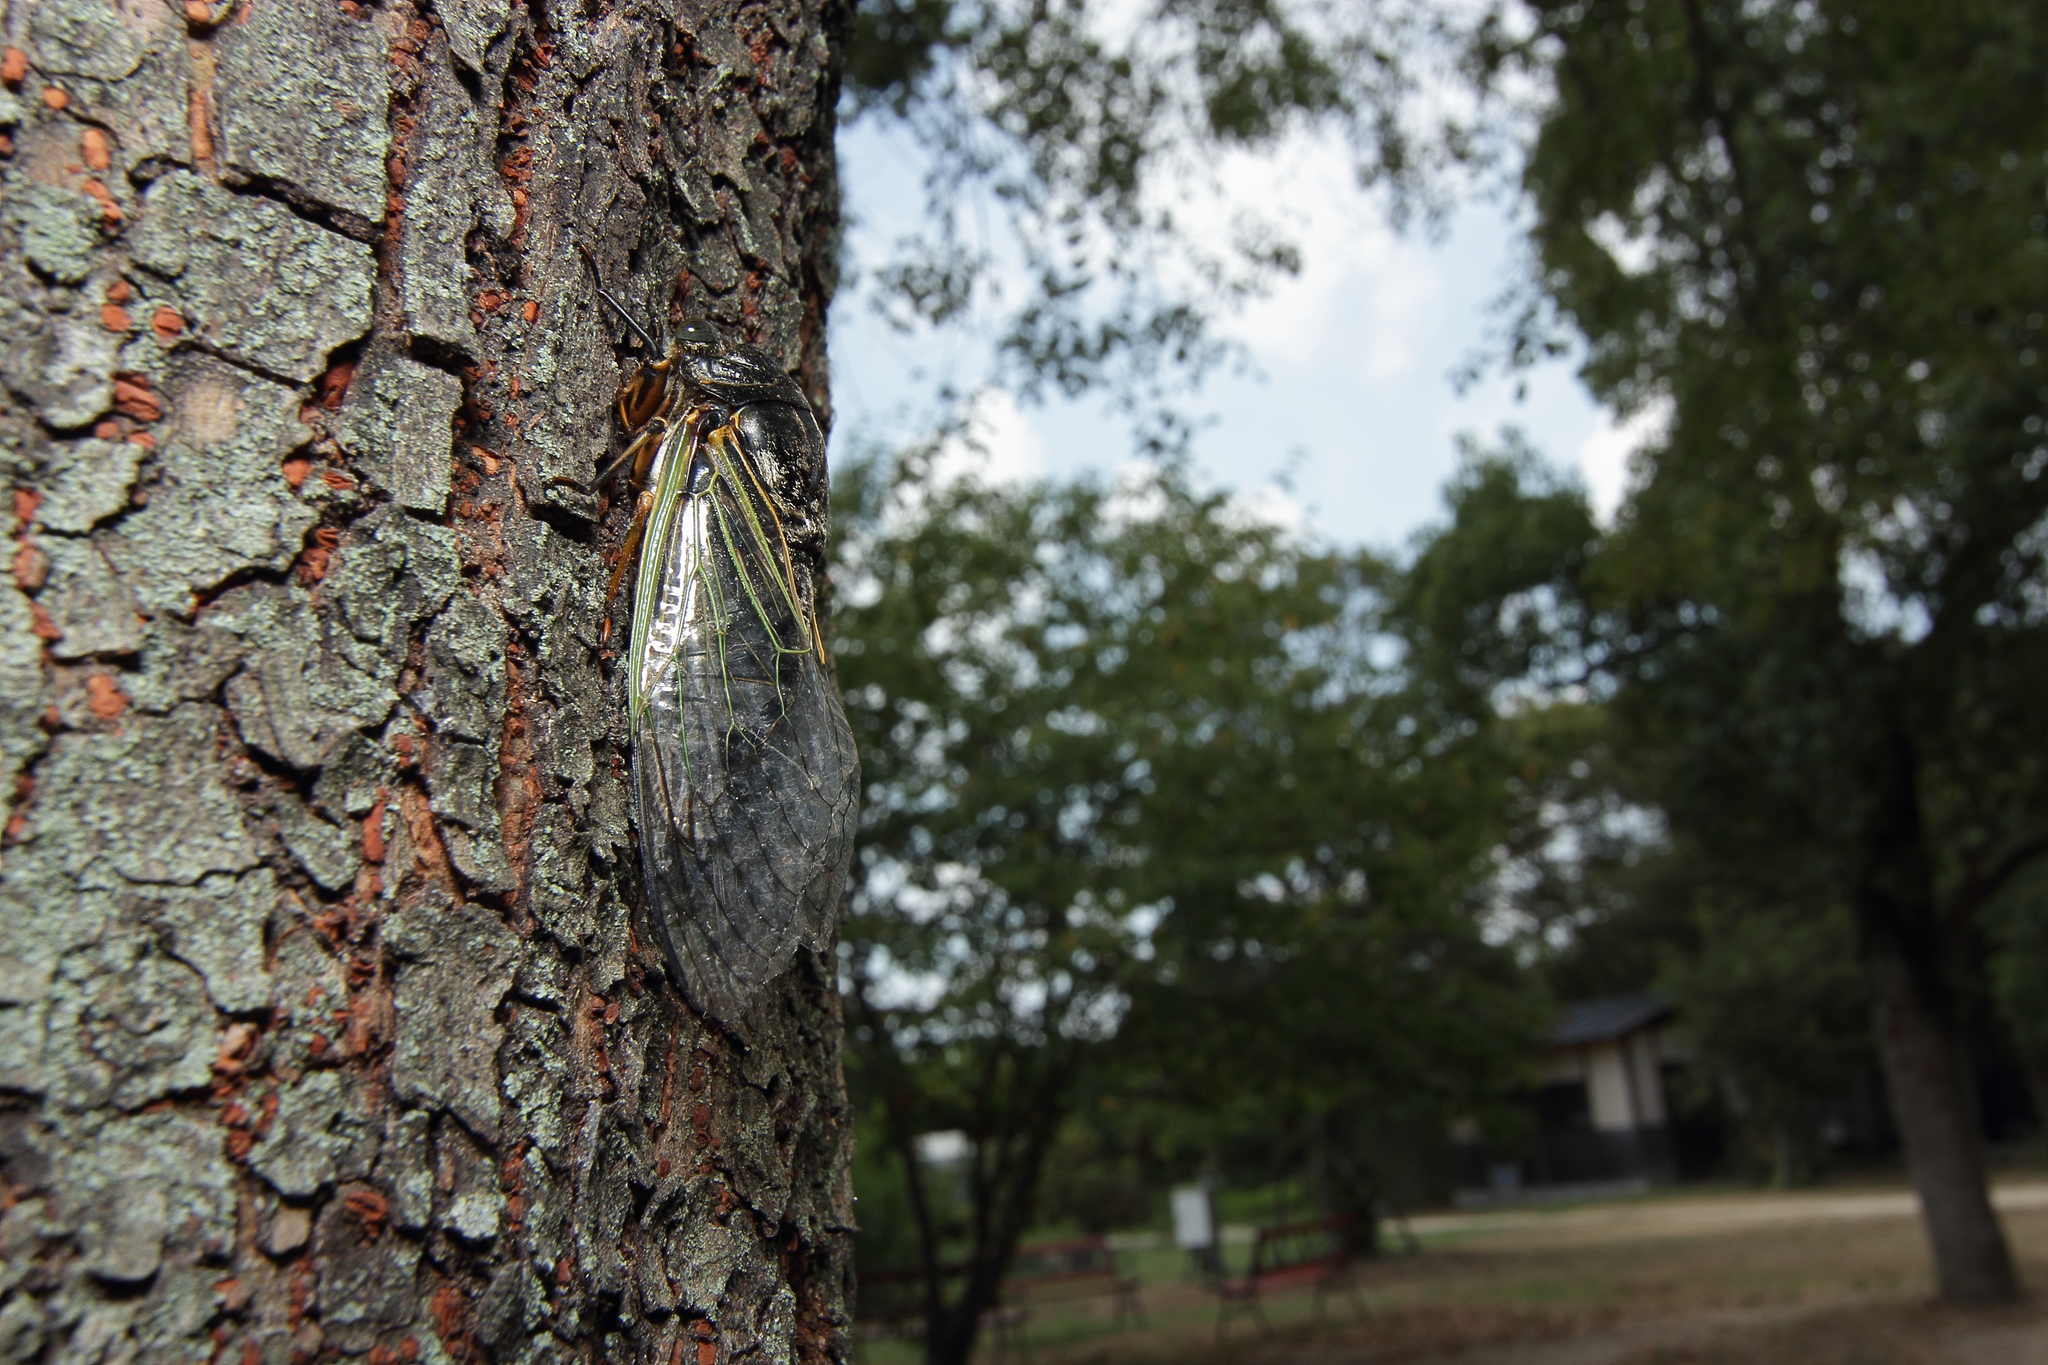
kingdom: Animalia
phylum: Arthropoda
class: Insecta
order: Hemiptera
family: Cicadidae
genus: Cryptotympana
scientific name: Cryptotympana facialis
